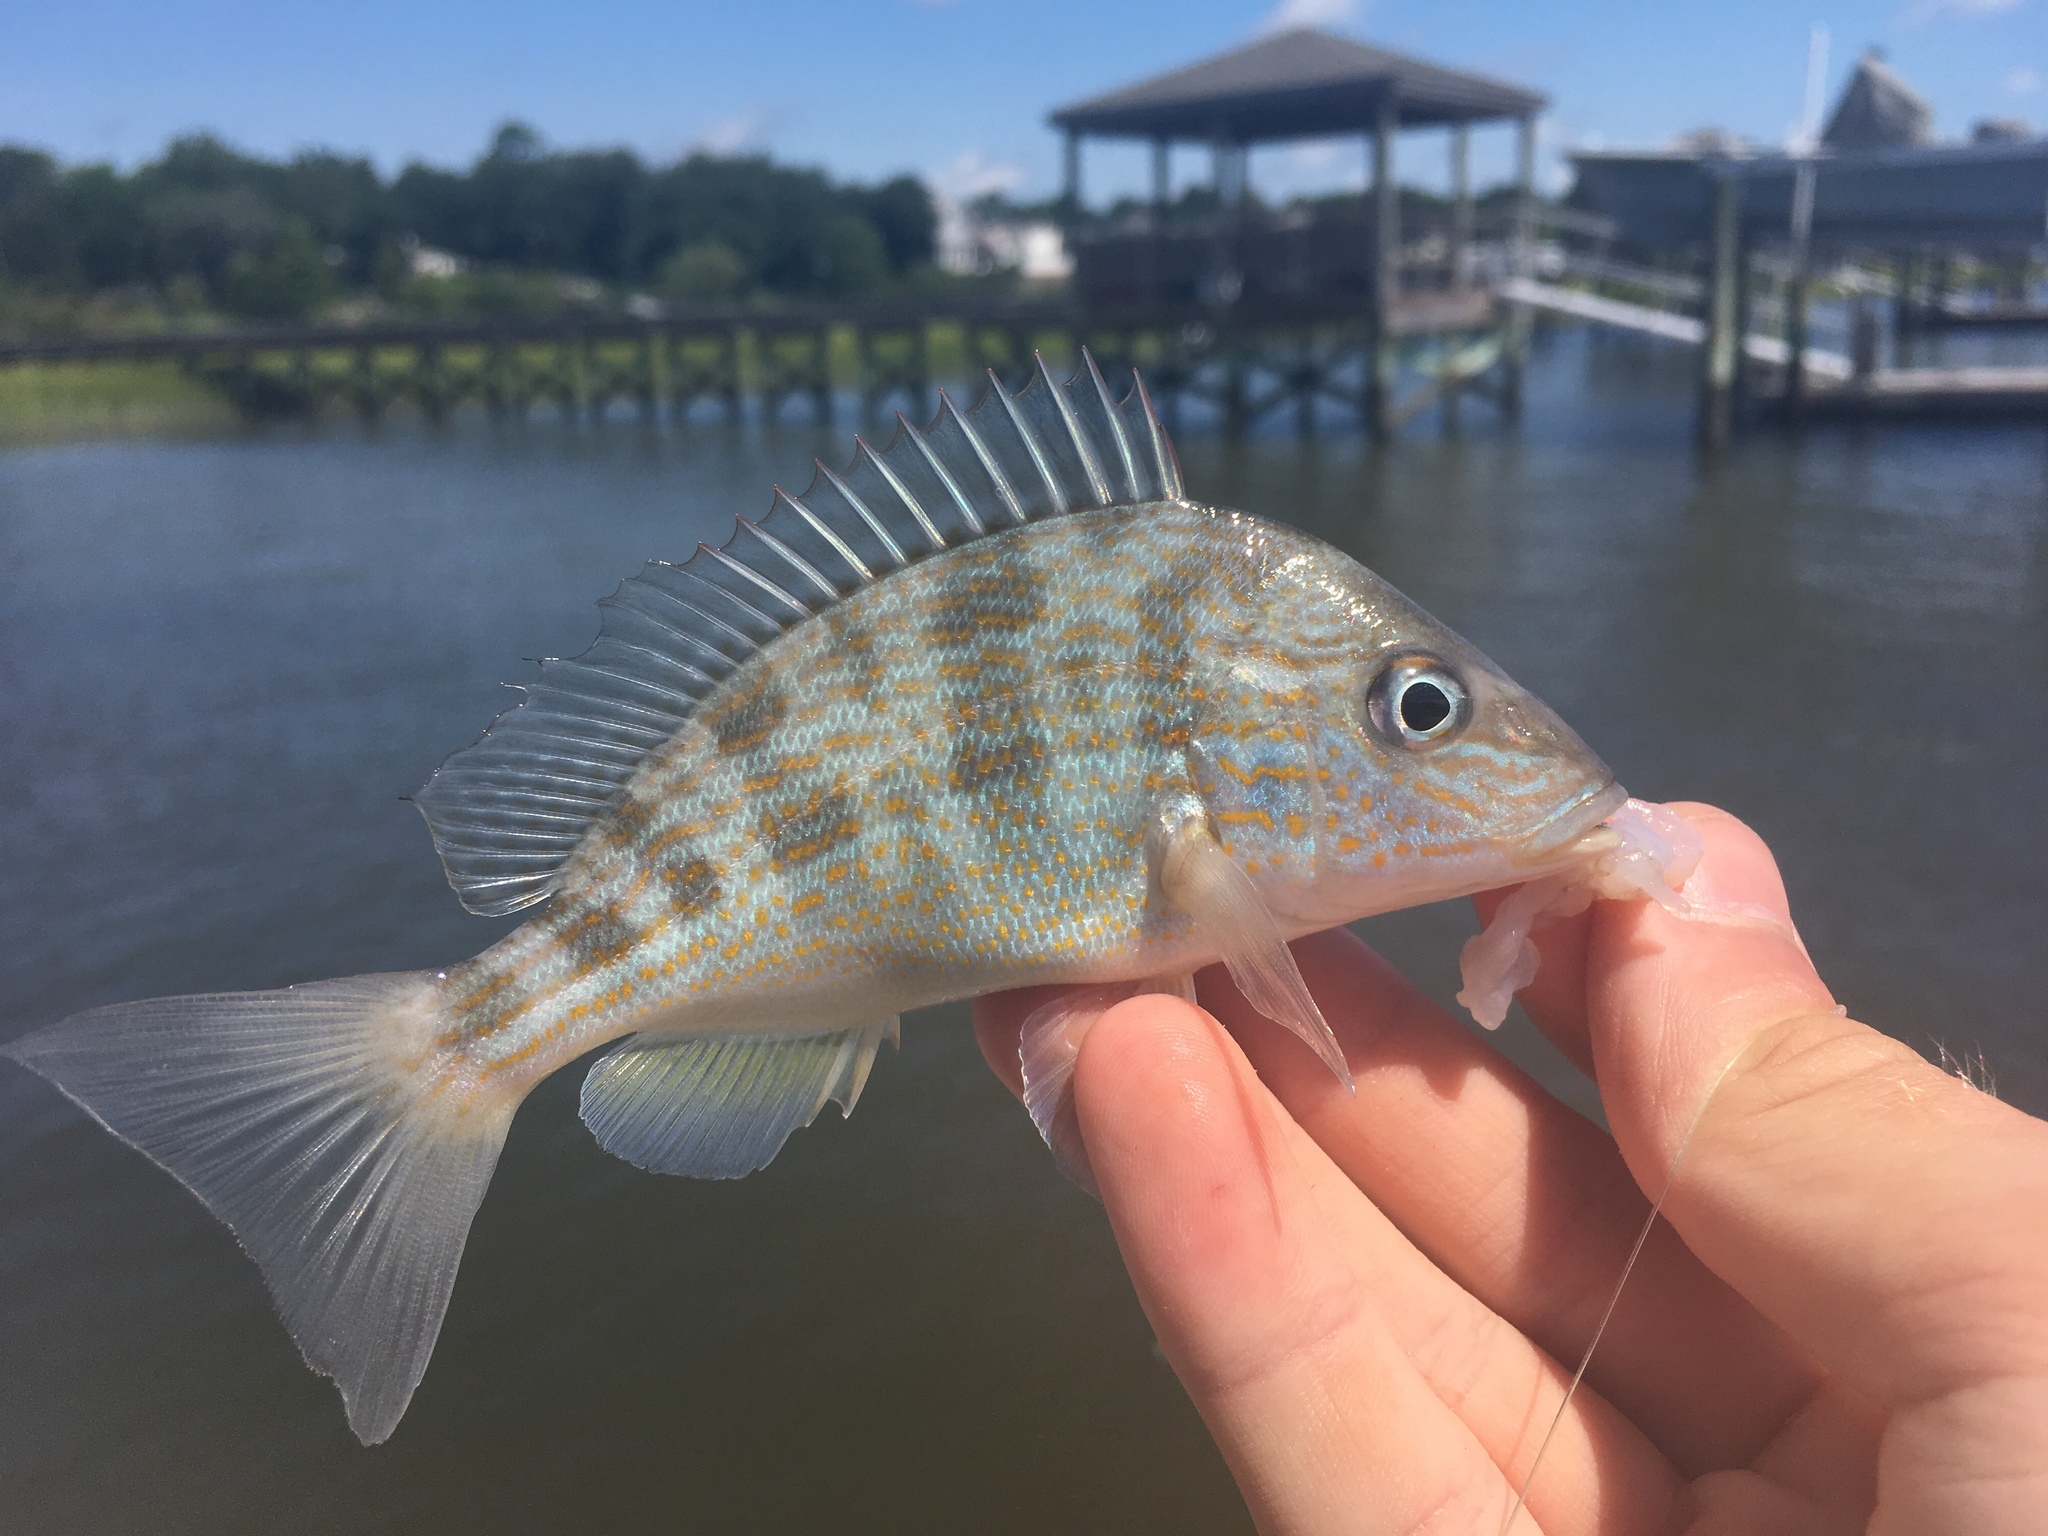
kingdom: Animalia
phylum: Chordata
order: Perciformes
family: Haemulidae
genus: Orthopristis
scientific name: Orthopristis chrysoptera
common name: Pigfish
